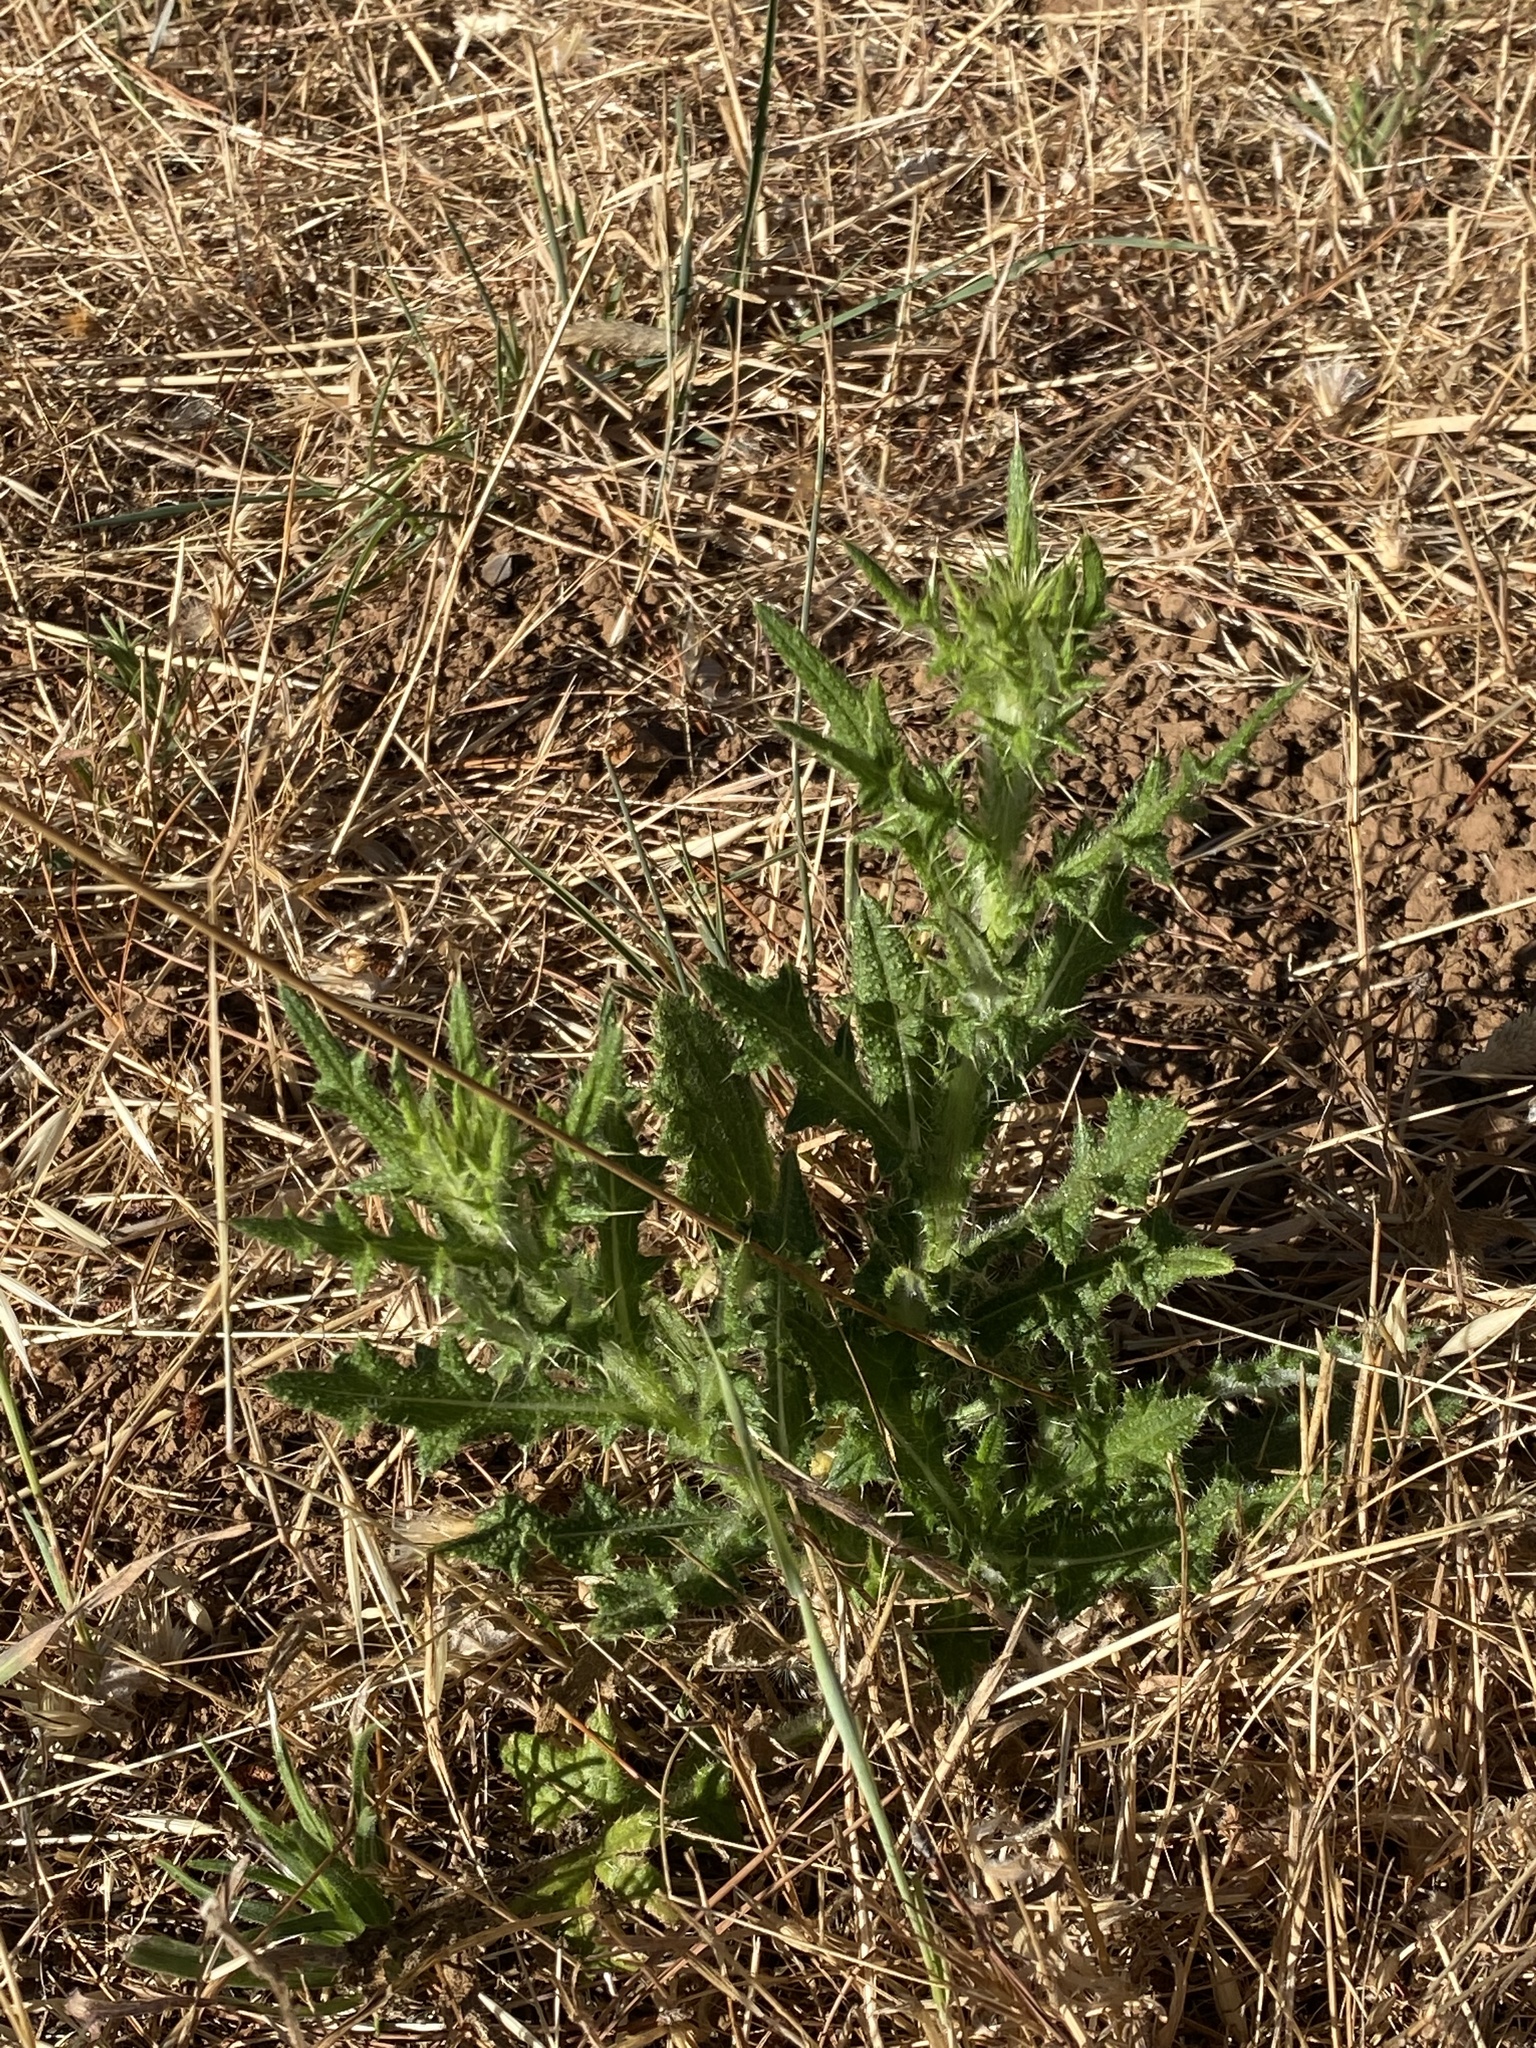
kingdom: Plantae
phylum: Tracheophyta
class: Magnoliopsida
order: Asterales
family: Asteraceae
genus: Cirsium
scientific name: Cirsium vulgare
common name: Bull thistle
